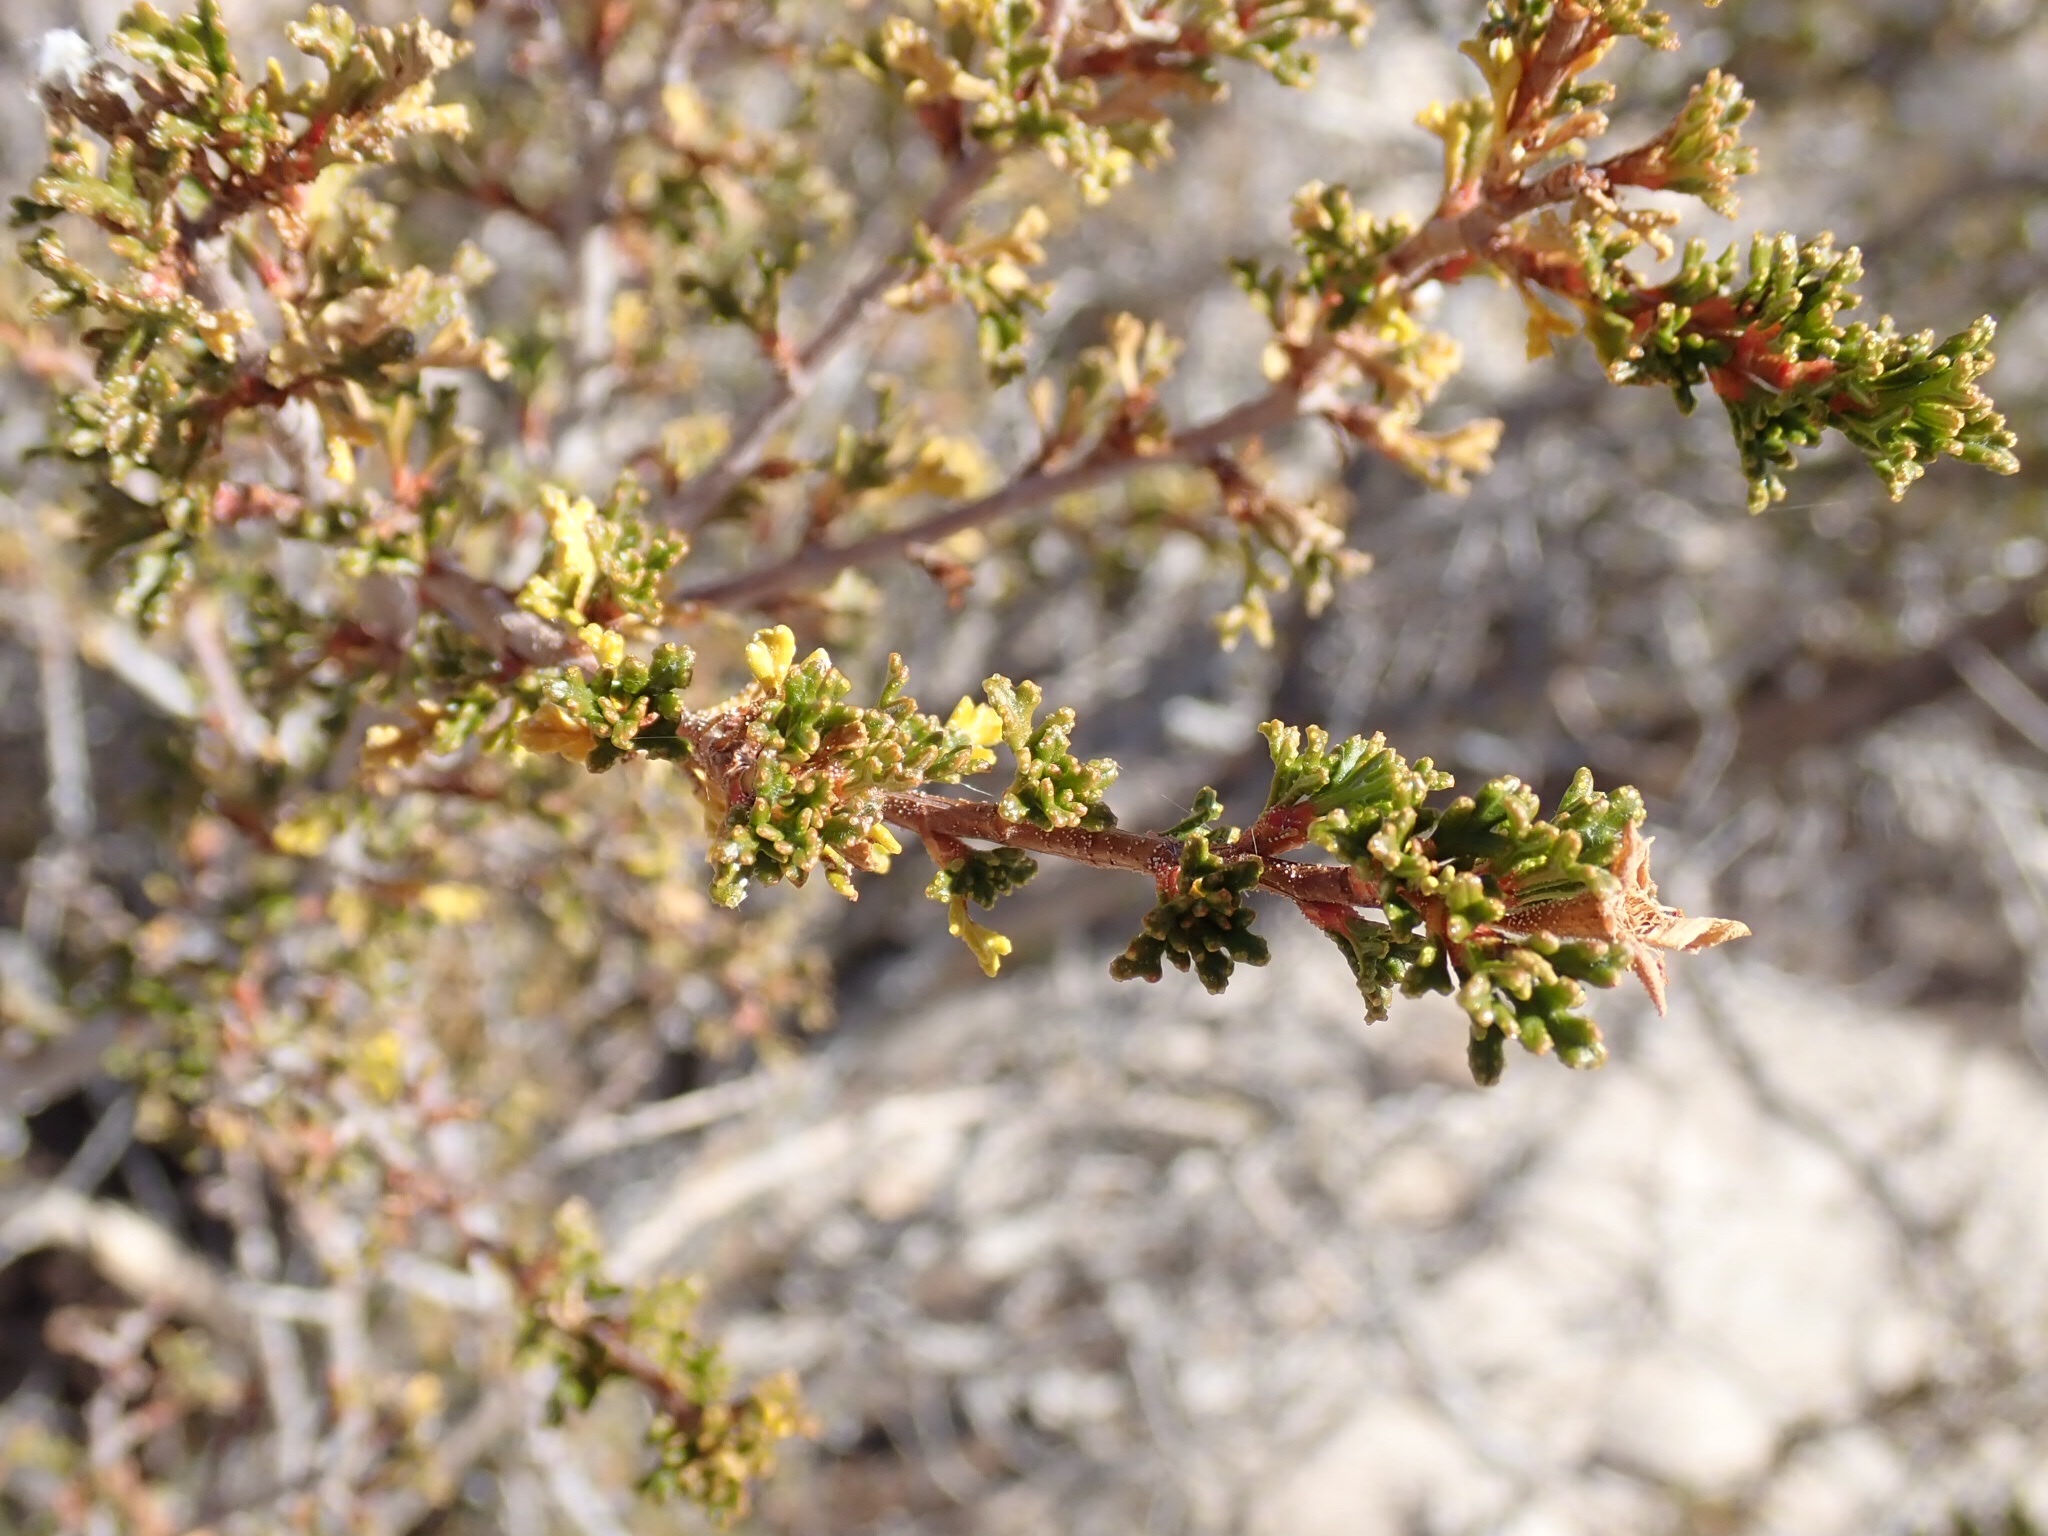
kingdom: Plantae
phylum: Tracheophyta
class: Magnoliopsida
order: Rosales
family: Rosaceae
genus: Purshia
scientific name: Purshia stansburiana
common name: Stansbury's cliffrose
